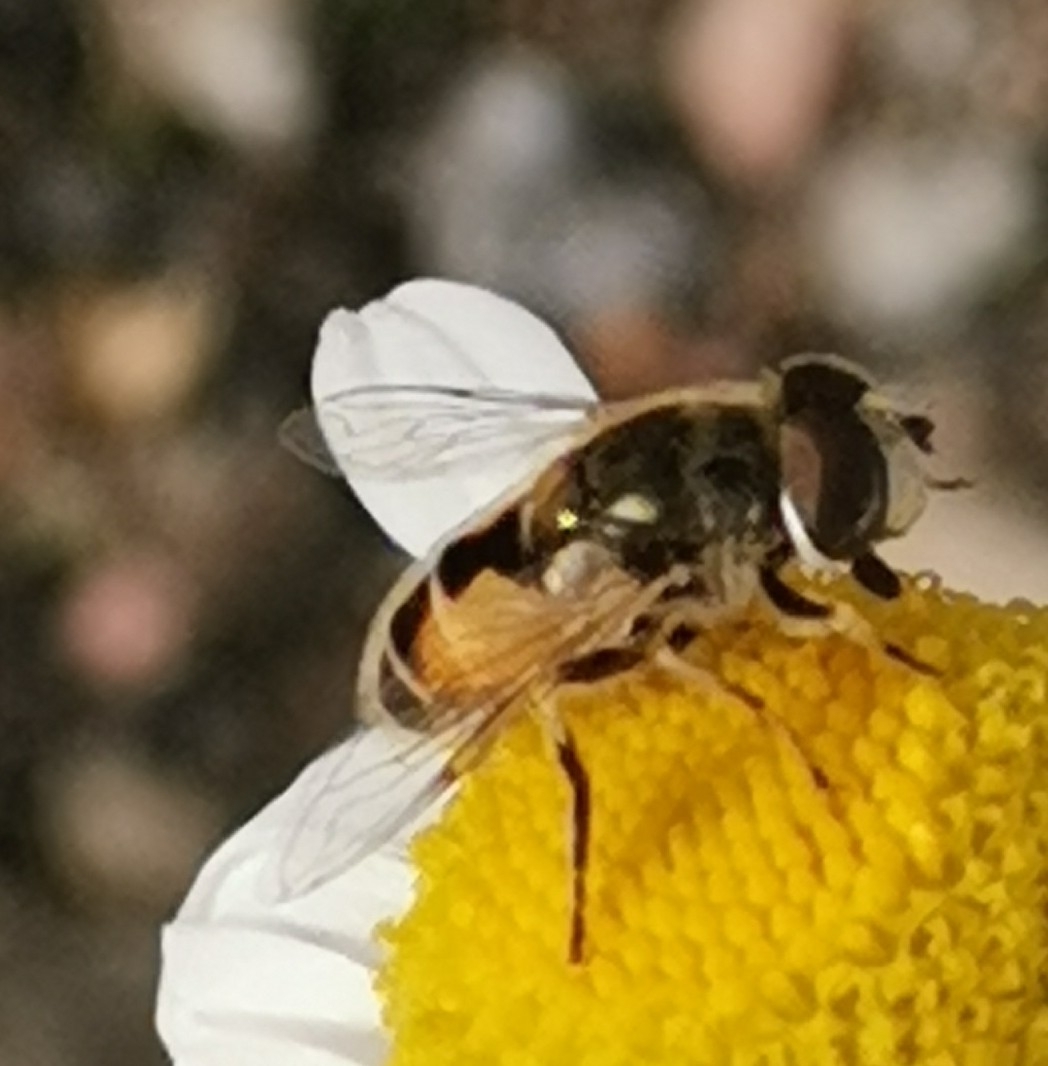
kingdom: Animalia
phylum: Arthropoda
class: Insecta
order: Diptera
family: Syrphidae
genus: Eristalis
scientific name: Eristalis arbustorum
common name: Hover fly
